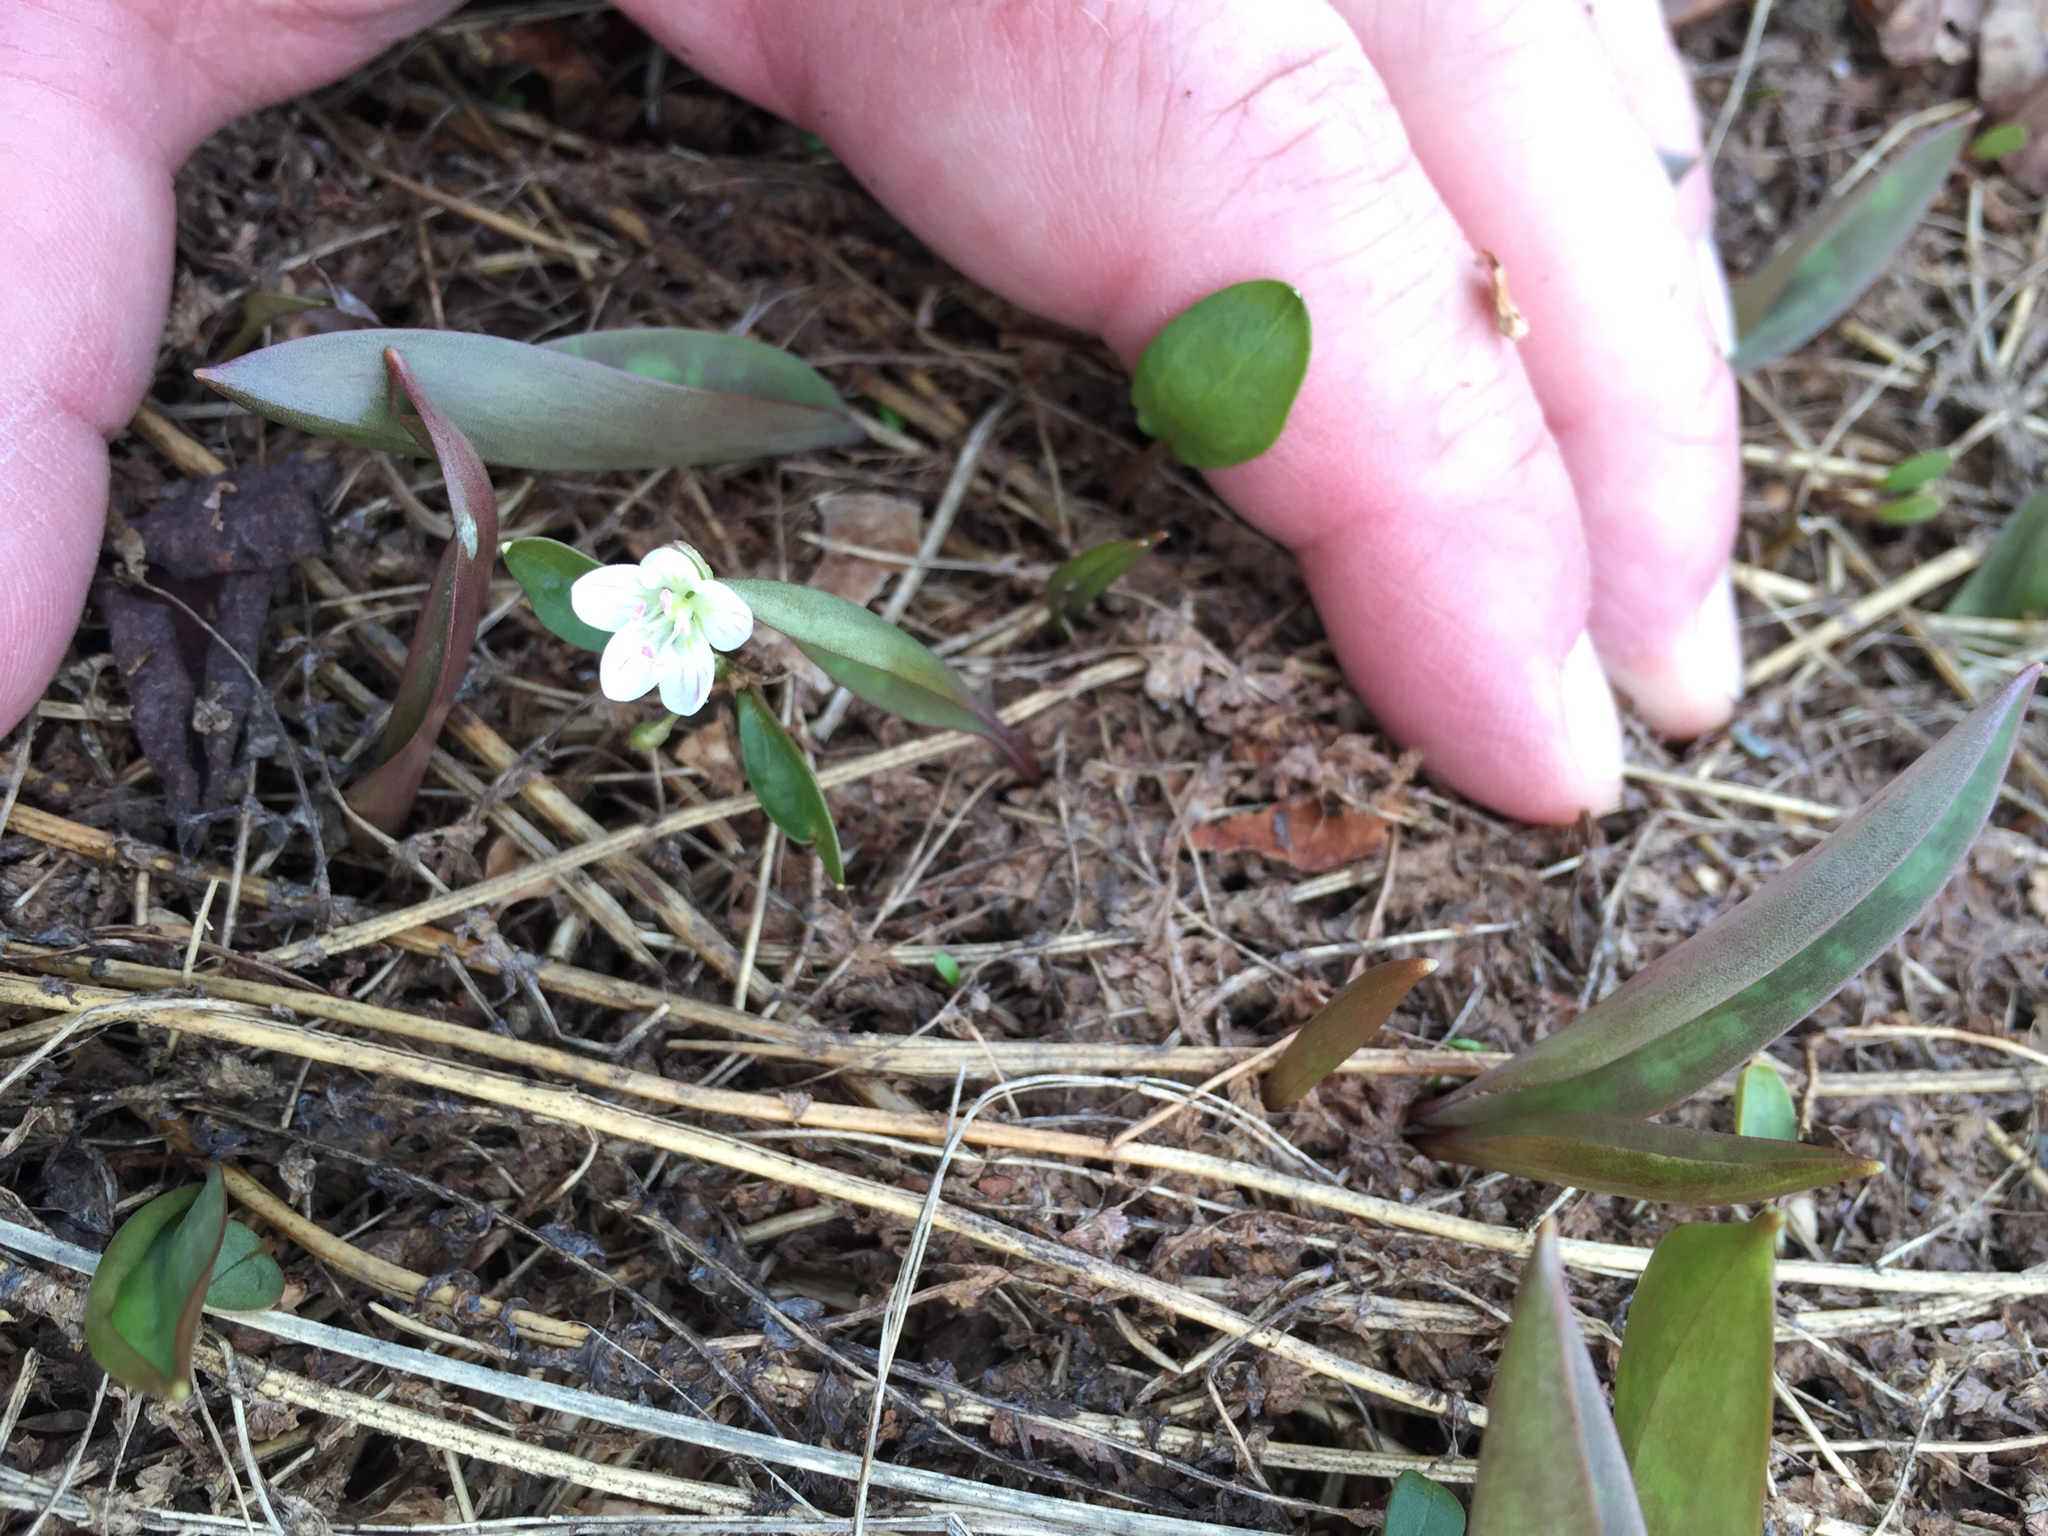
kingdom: Plantae
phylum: Tracheophyta
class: Magnoliopsida
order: Caryophyllales
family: Montiaceae
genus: Claytonia
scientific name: Claytonia caroliniana
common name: Carolina spring beauty
